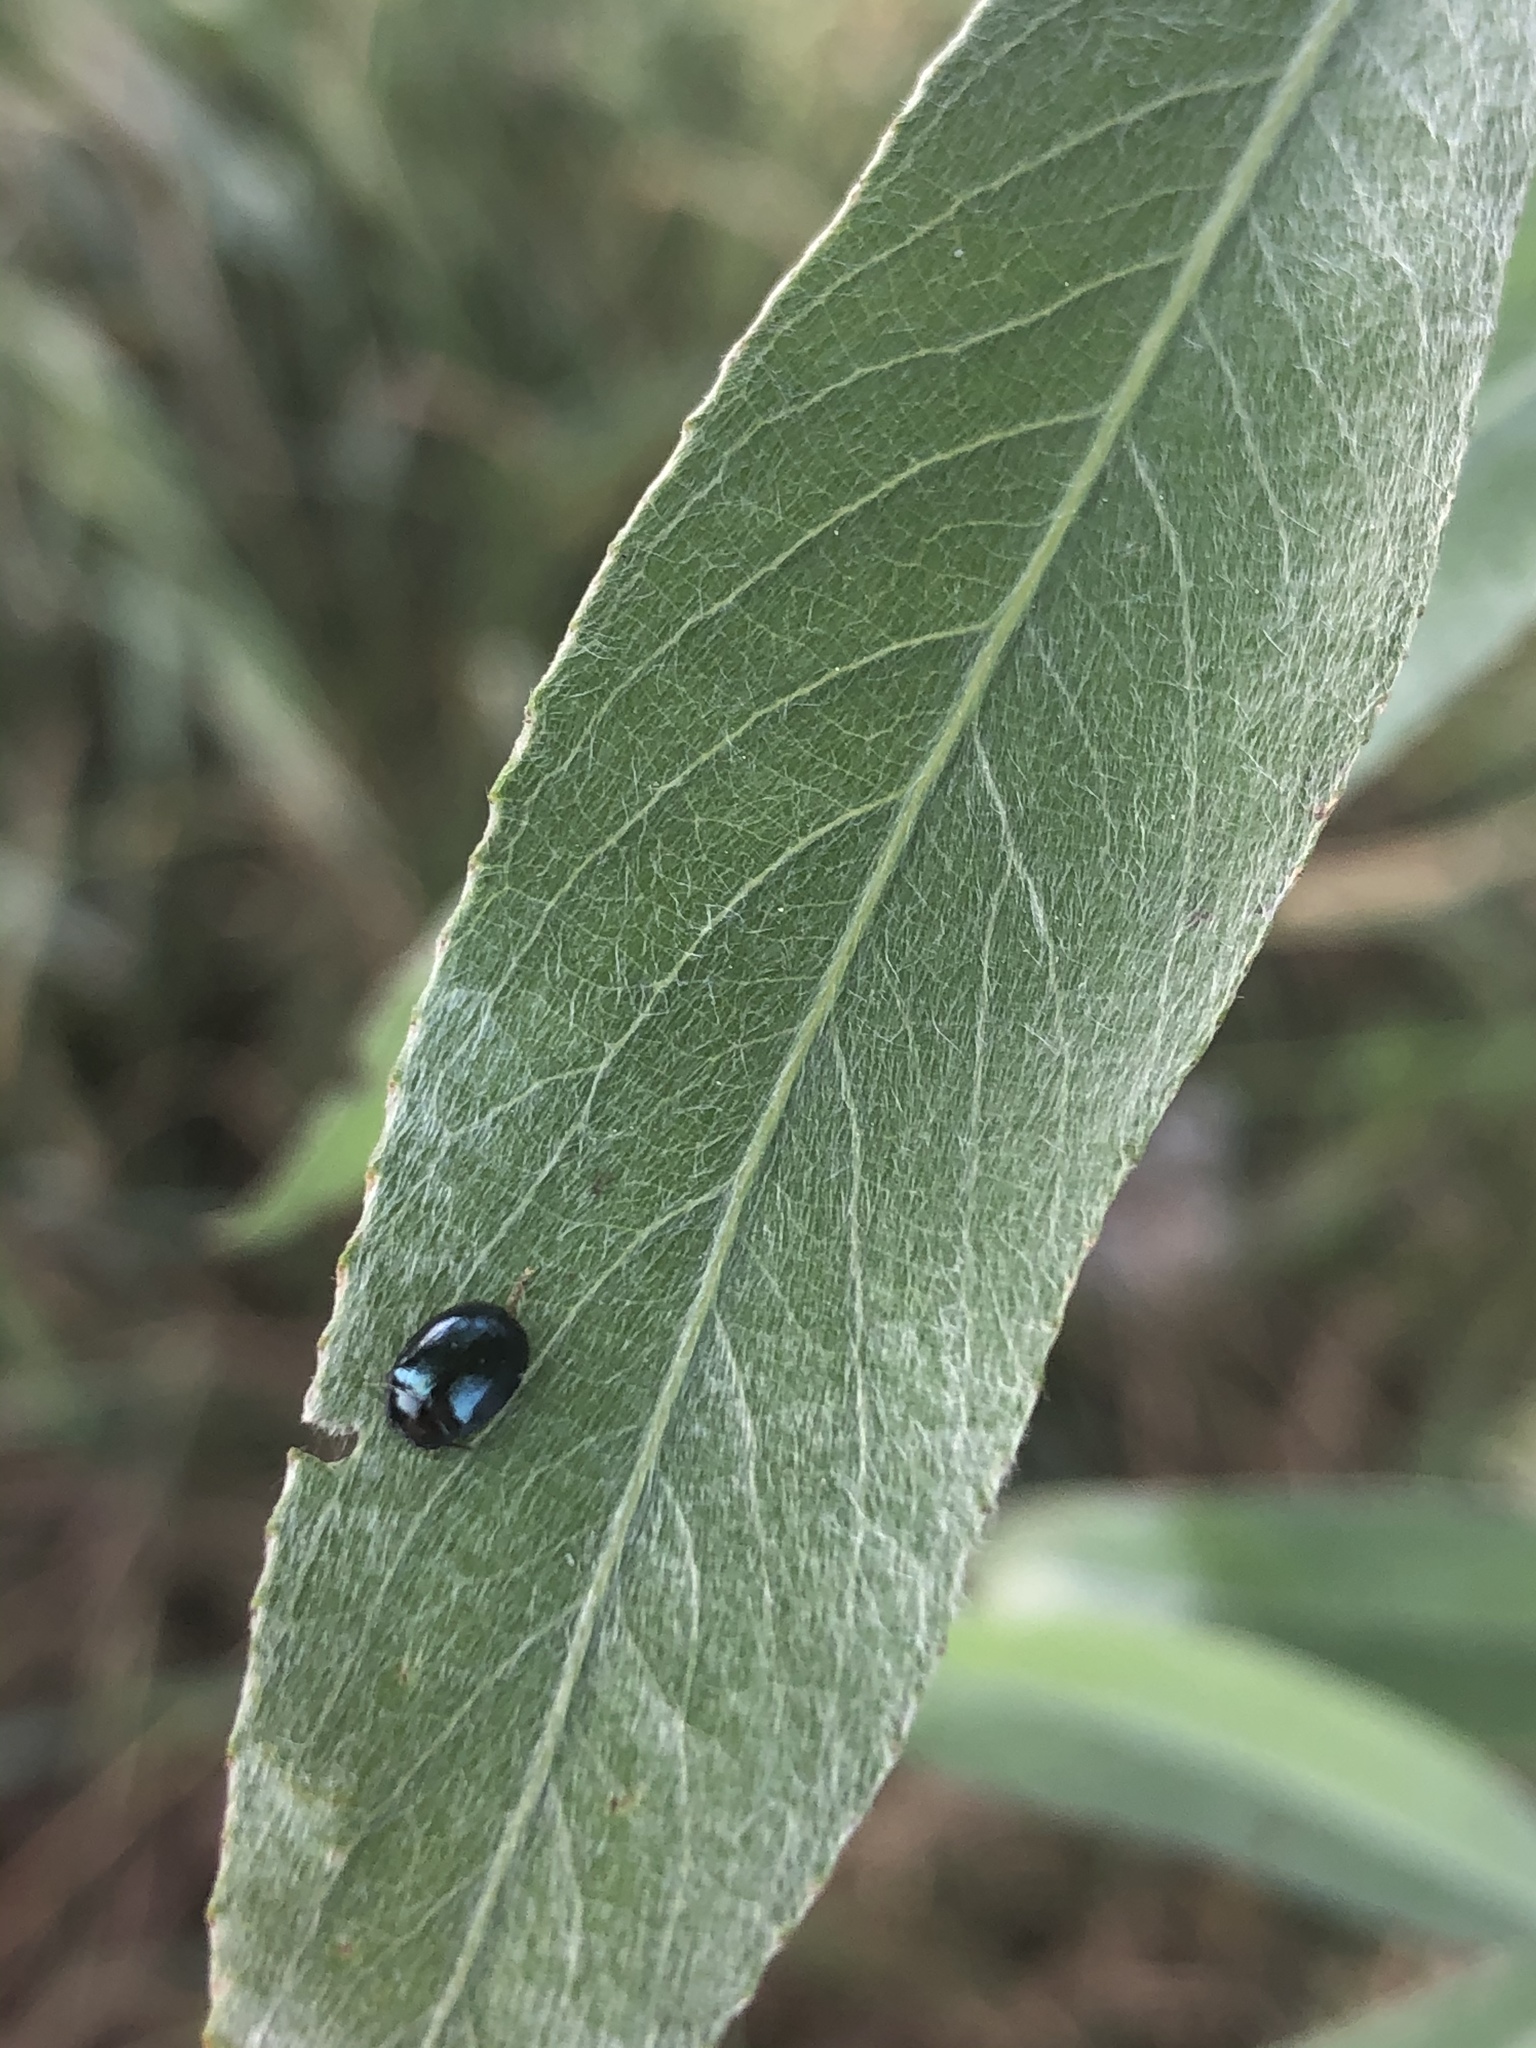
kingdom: Animalia
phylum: Arthropoda
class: Insecta
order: Coleoptera
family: Chrysomelidae
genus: Plagiodera
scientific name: Plagiodera versicolora
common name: Imported willow leaf beetle
